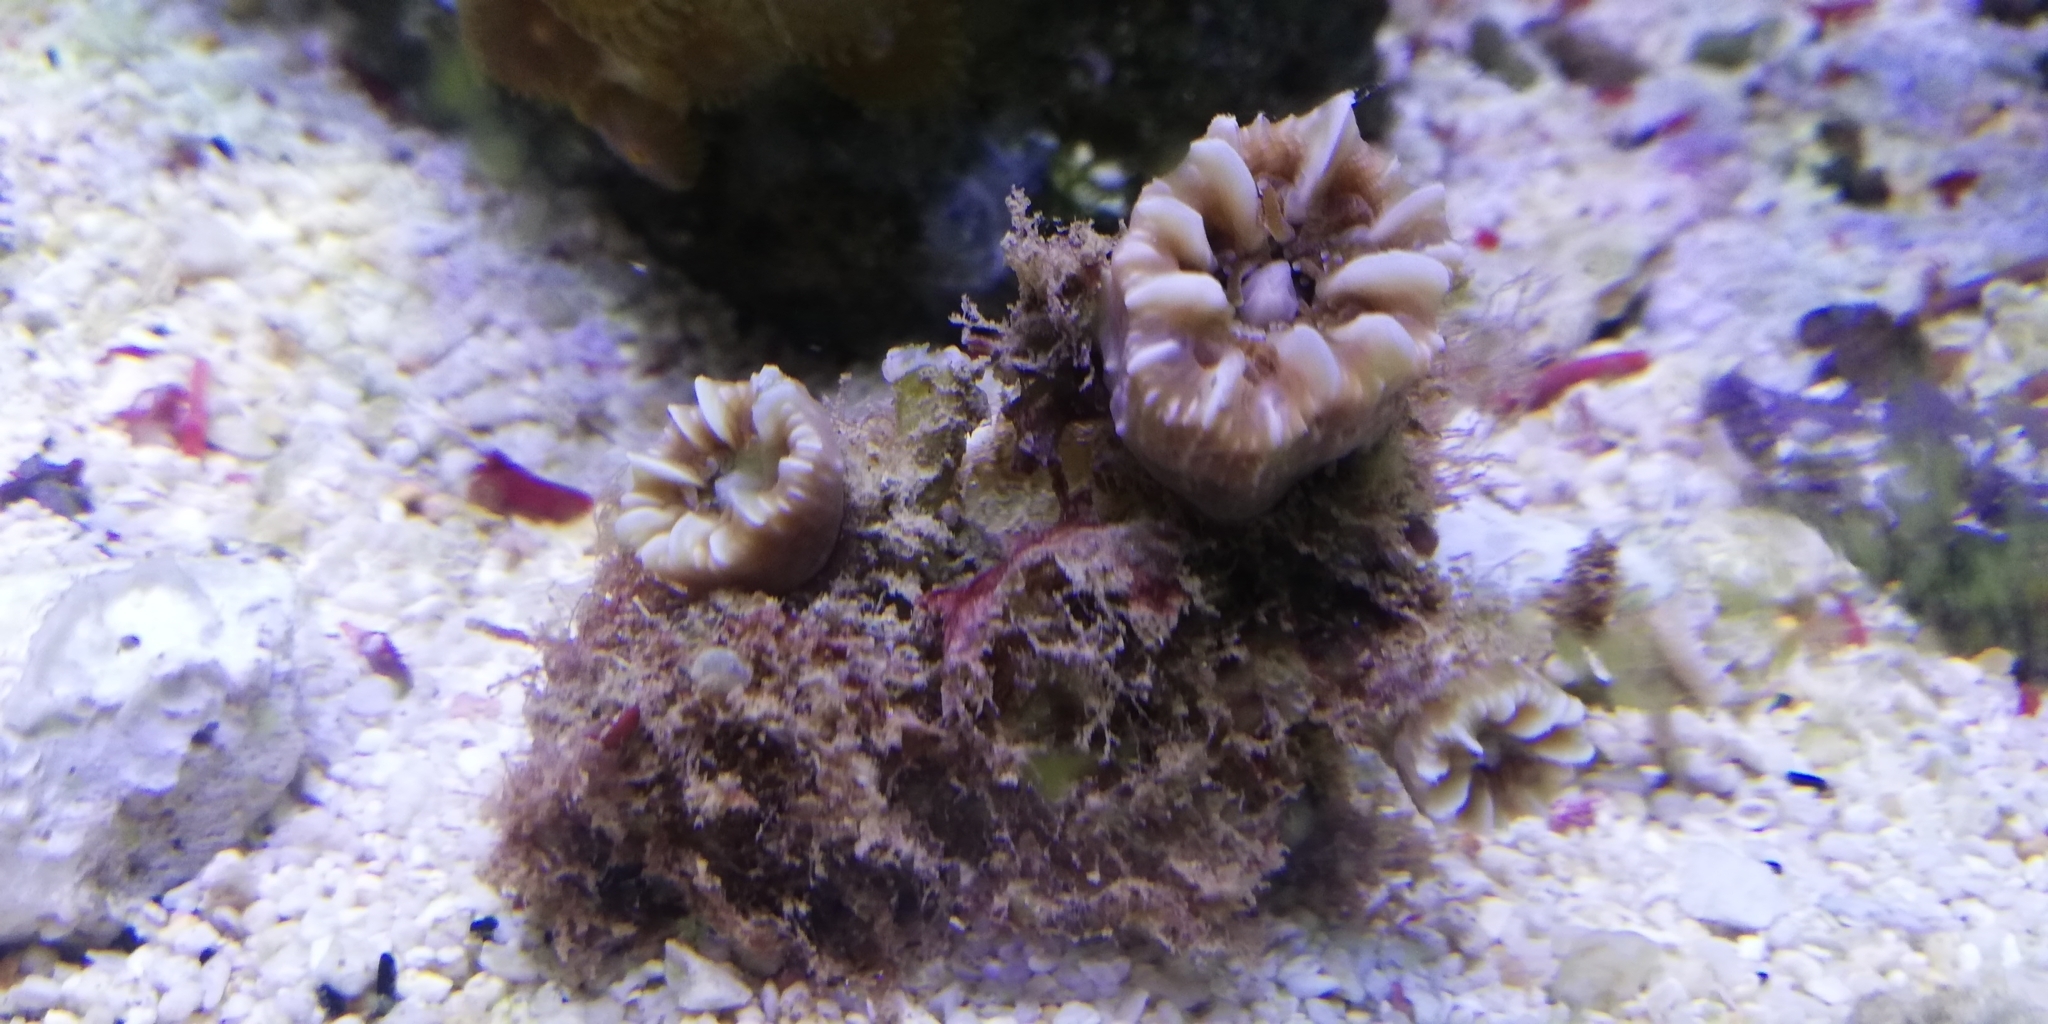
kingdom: Animalia
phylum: Cnidaria
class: Anthozoa
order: Scleractinia
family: Caryophylliidae
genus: Phyllangia
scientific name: Phyllangia americana
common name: Hidden cup coral
